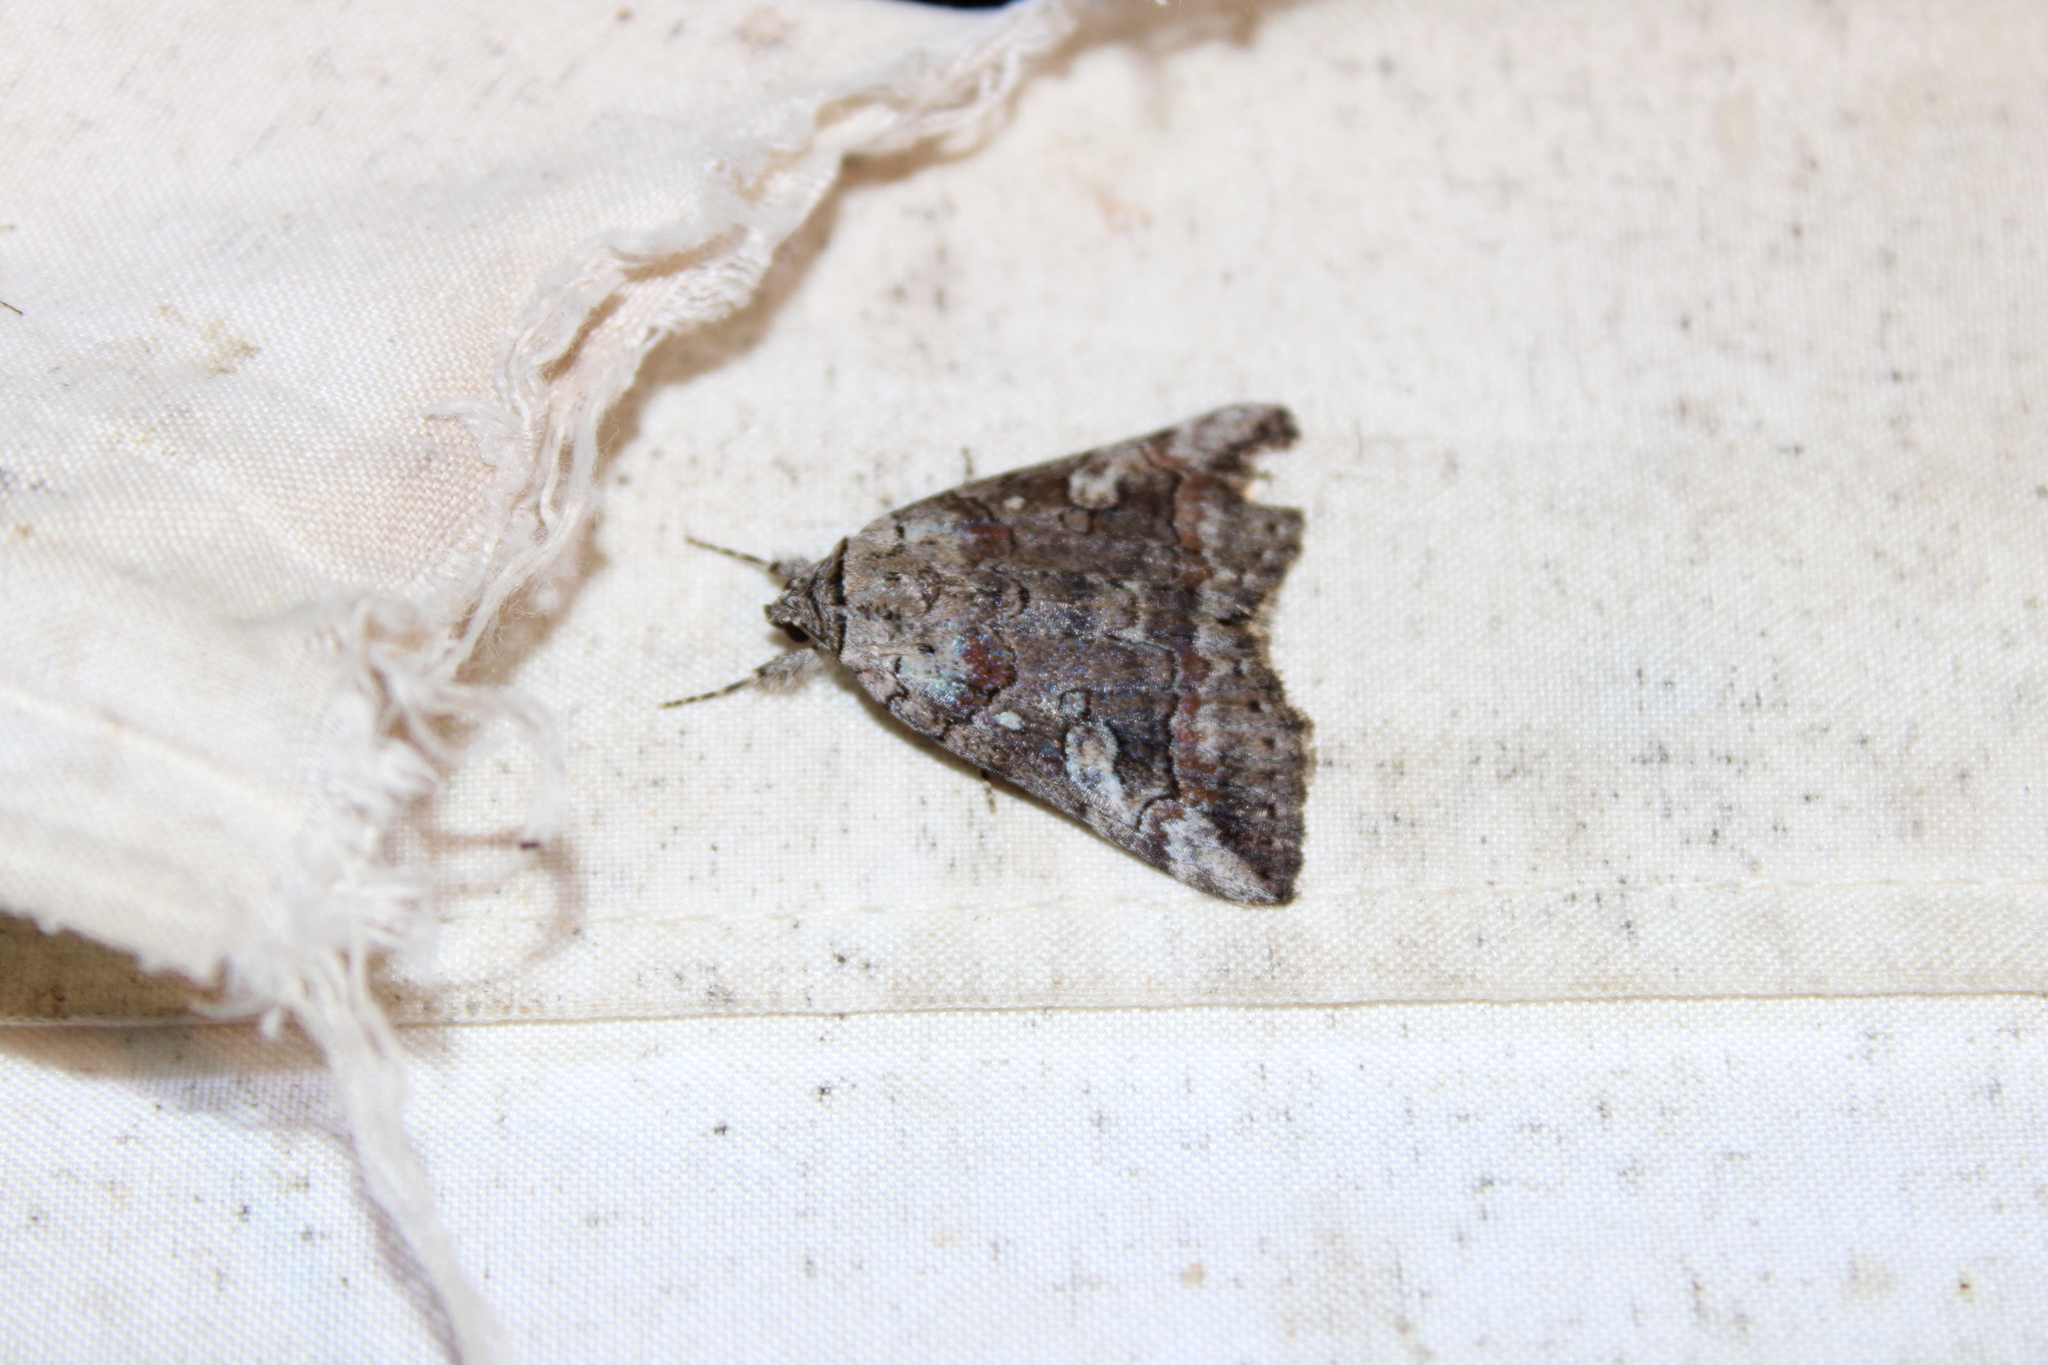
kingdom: Animalia
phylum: Arthropoda
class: Insecta
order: Lepidoptera
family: Erebidae
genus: Catocala
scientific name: Catocala similis
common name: Similar underwing
